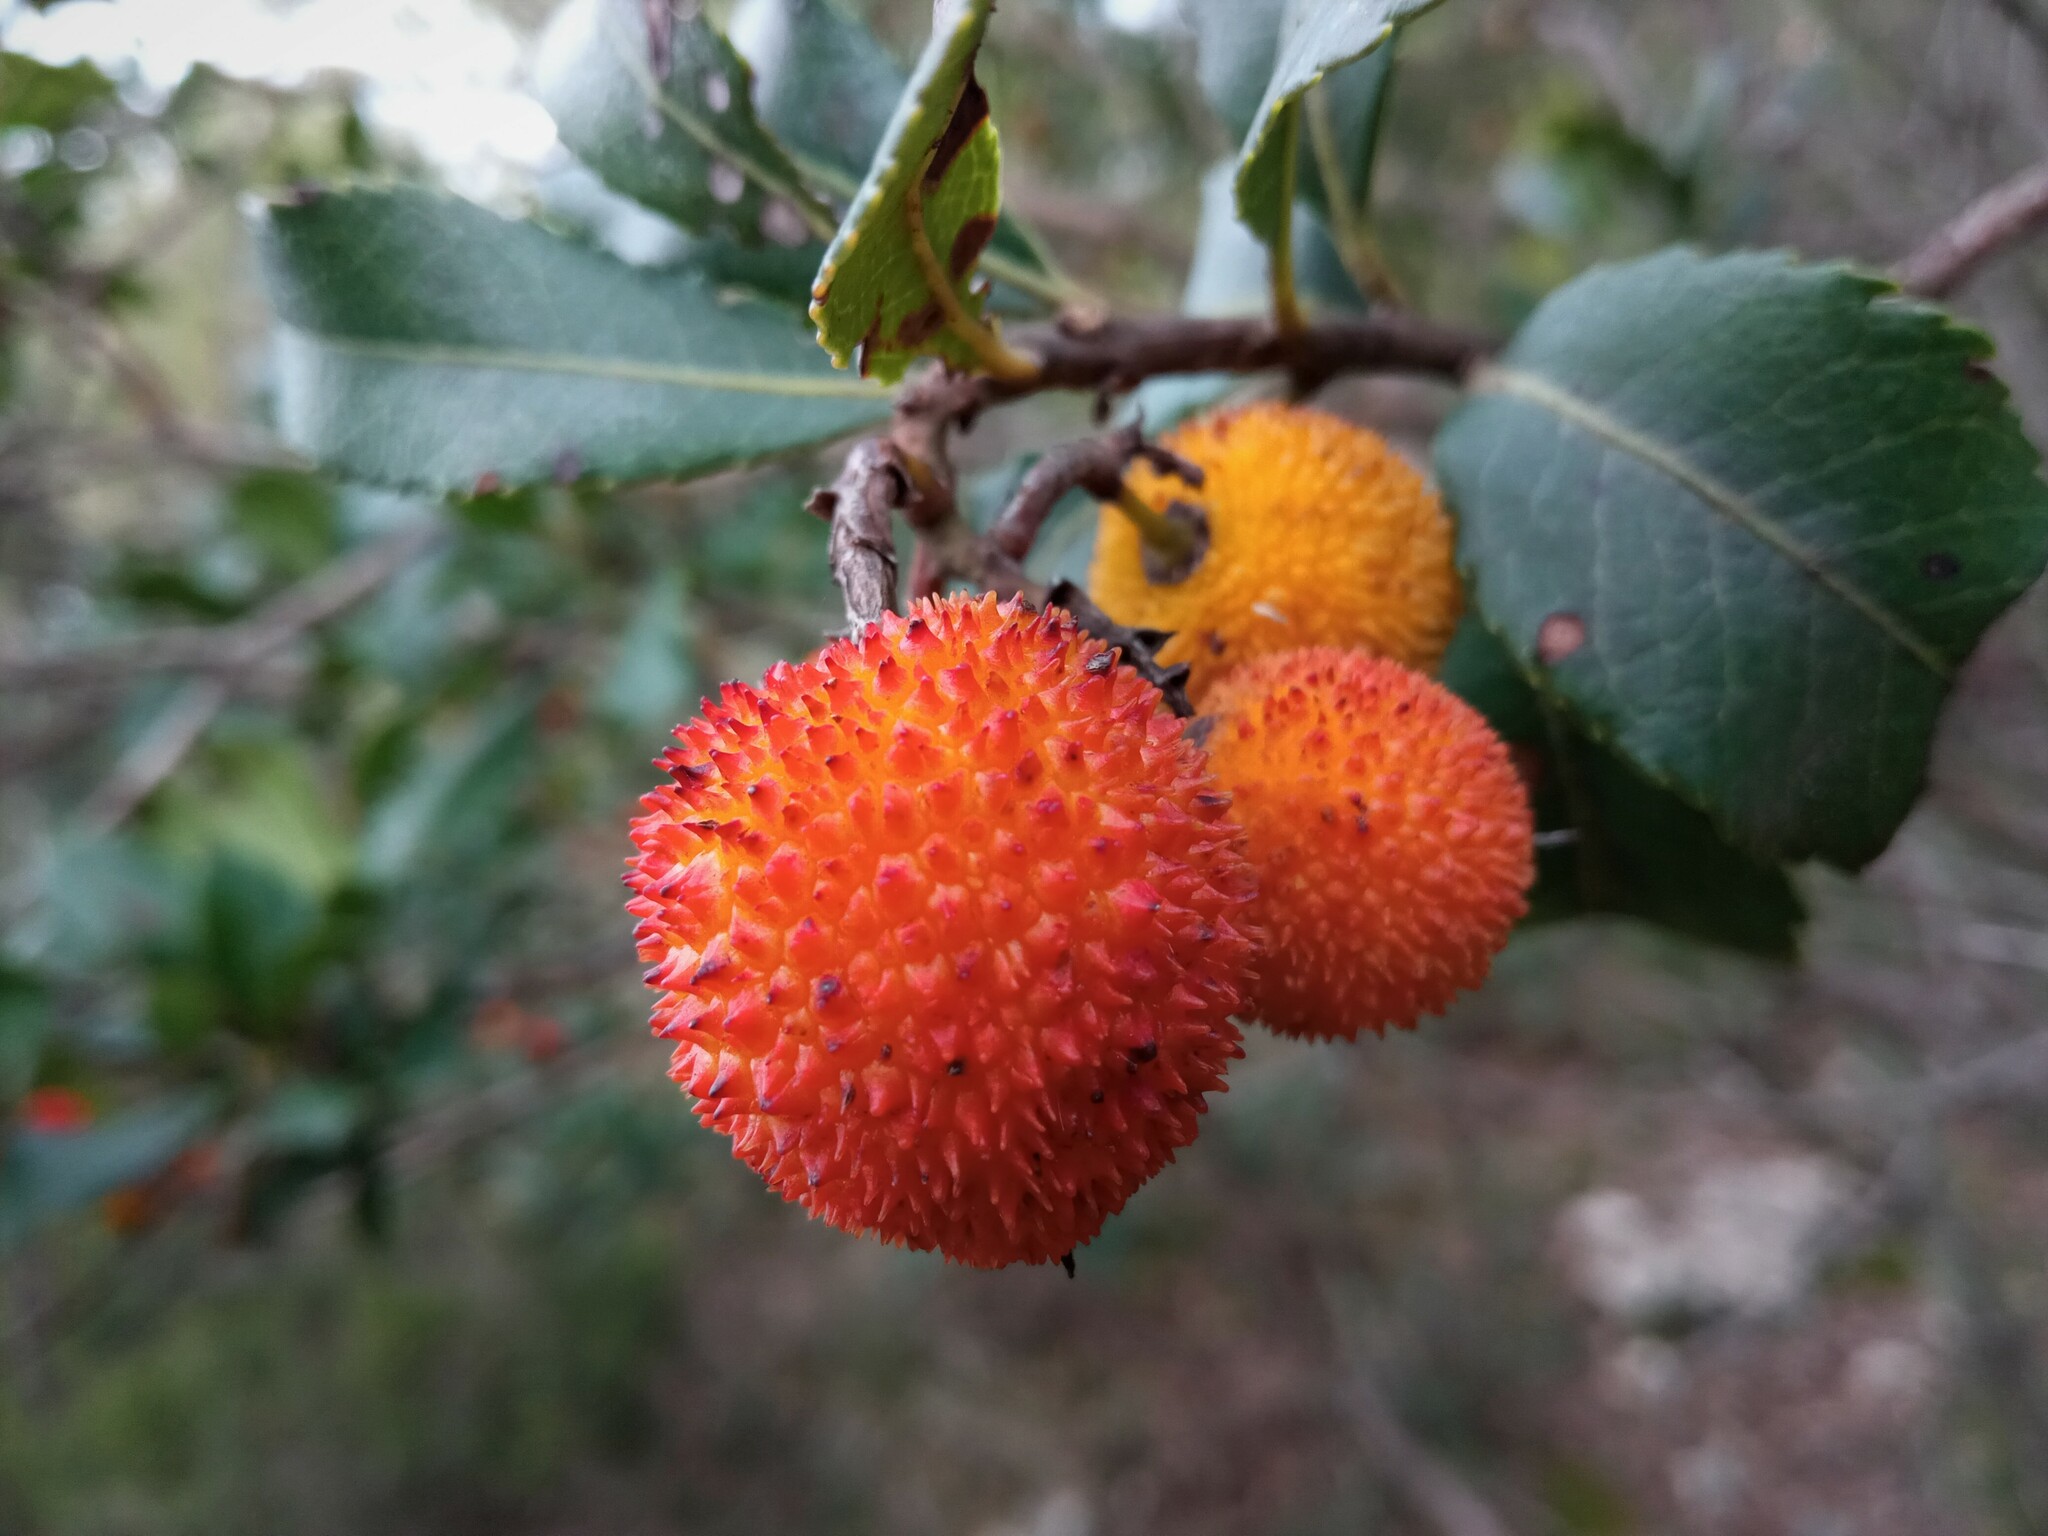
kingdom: Plantae
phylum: Tracheophyta
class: Magnoliopsida
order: Ericales
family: Ericaceae
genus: Arbutus
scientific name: Arbutus unedo
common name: Strawberry-tree
